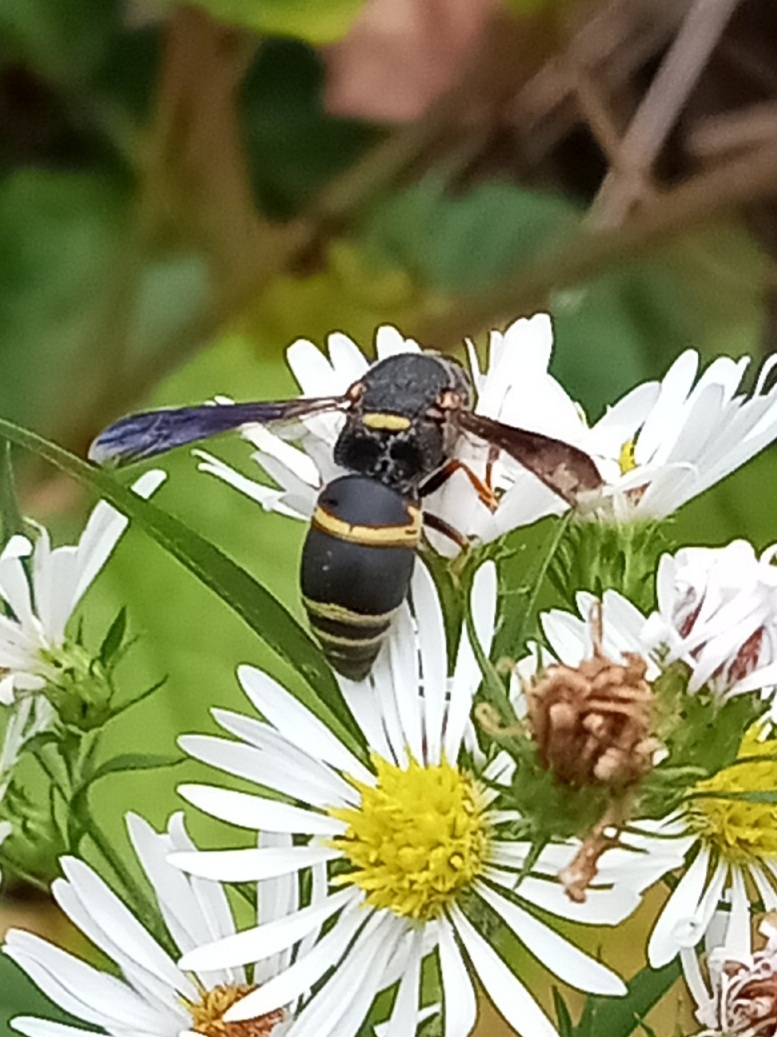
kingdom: Animalia
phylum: Arthropoda
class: Insecta
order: Hymenoptera
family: Eumenidae
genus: Euodynerus
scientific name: Euodynerus hidalgo
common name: Wasp
